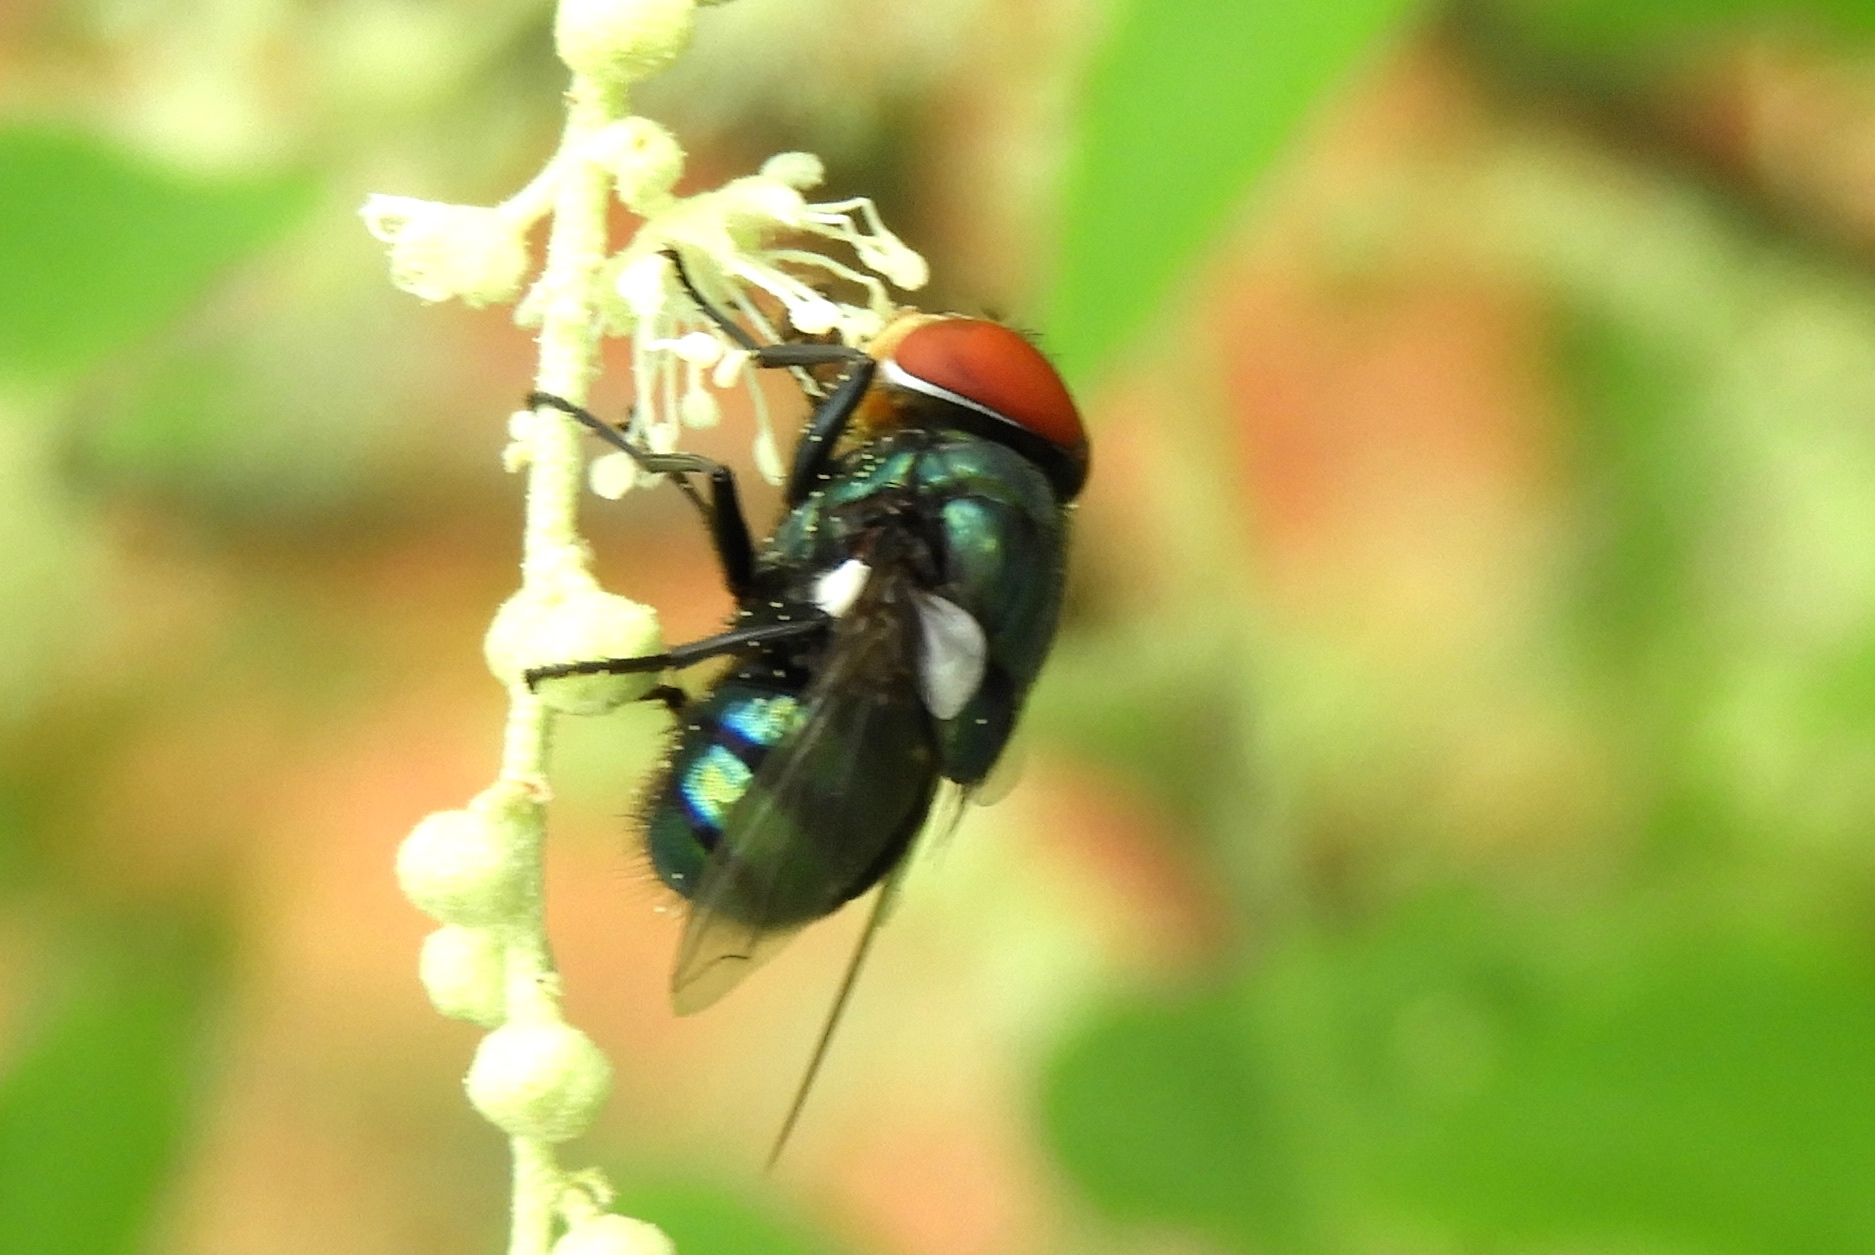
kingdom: Animalia
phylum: Arthropoda
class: Insecta
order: Diptera
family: Calliphoridae
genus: Chrysomya
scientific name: Chrysomya
